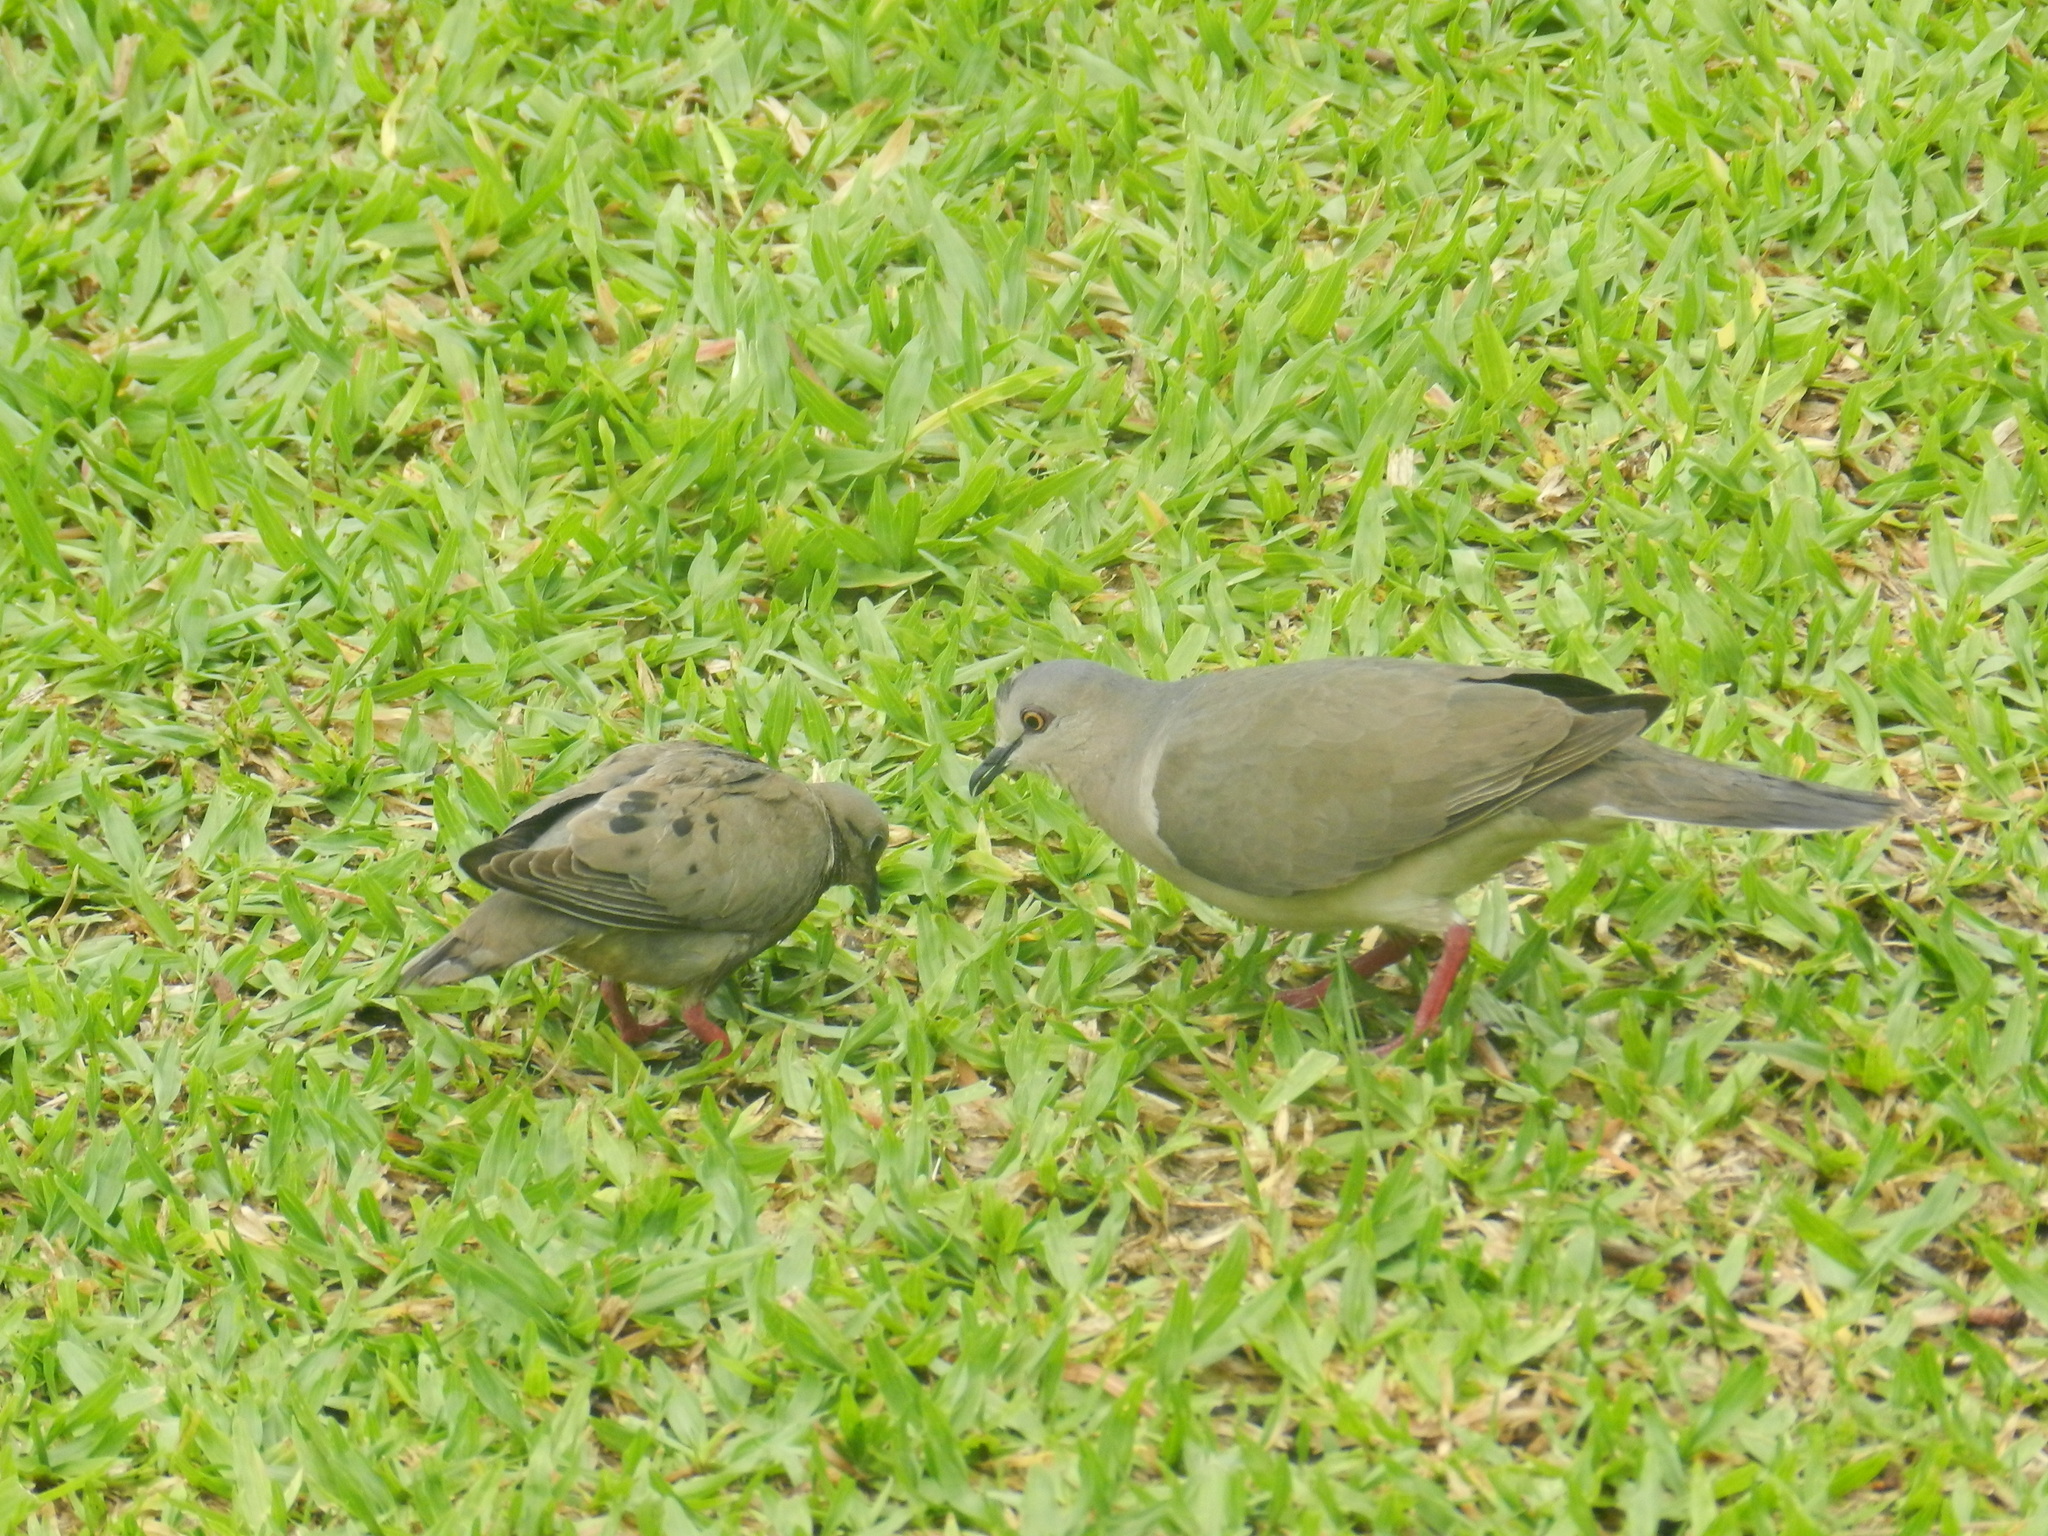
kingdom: Animalia
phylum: Chordata
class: Aves
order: Columbiformes
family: Columbidae
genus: Zenaida
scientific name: Zenaida auriculata
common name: Eared dove
